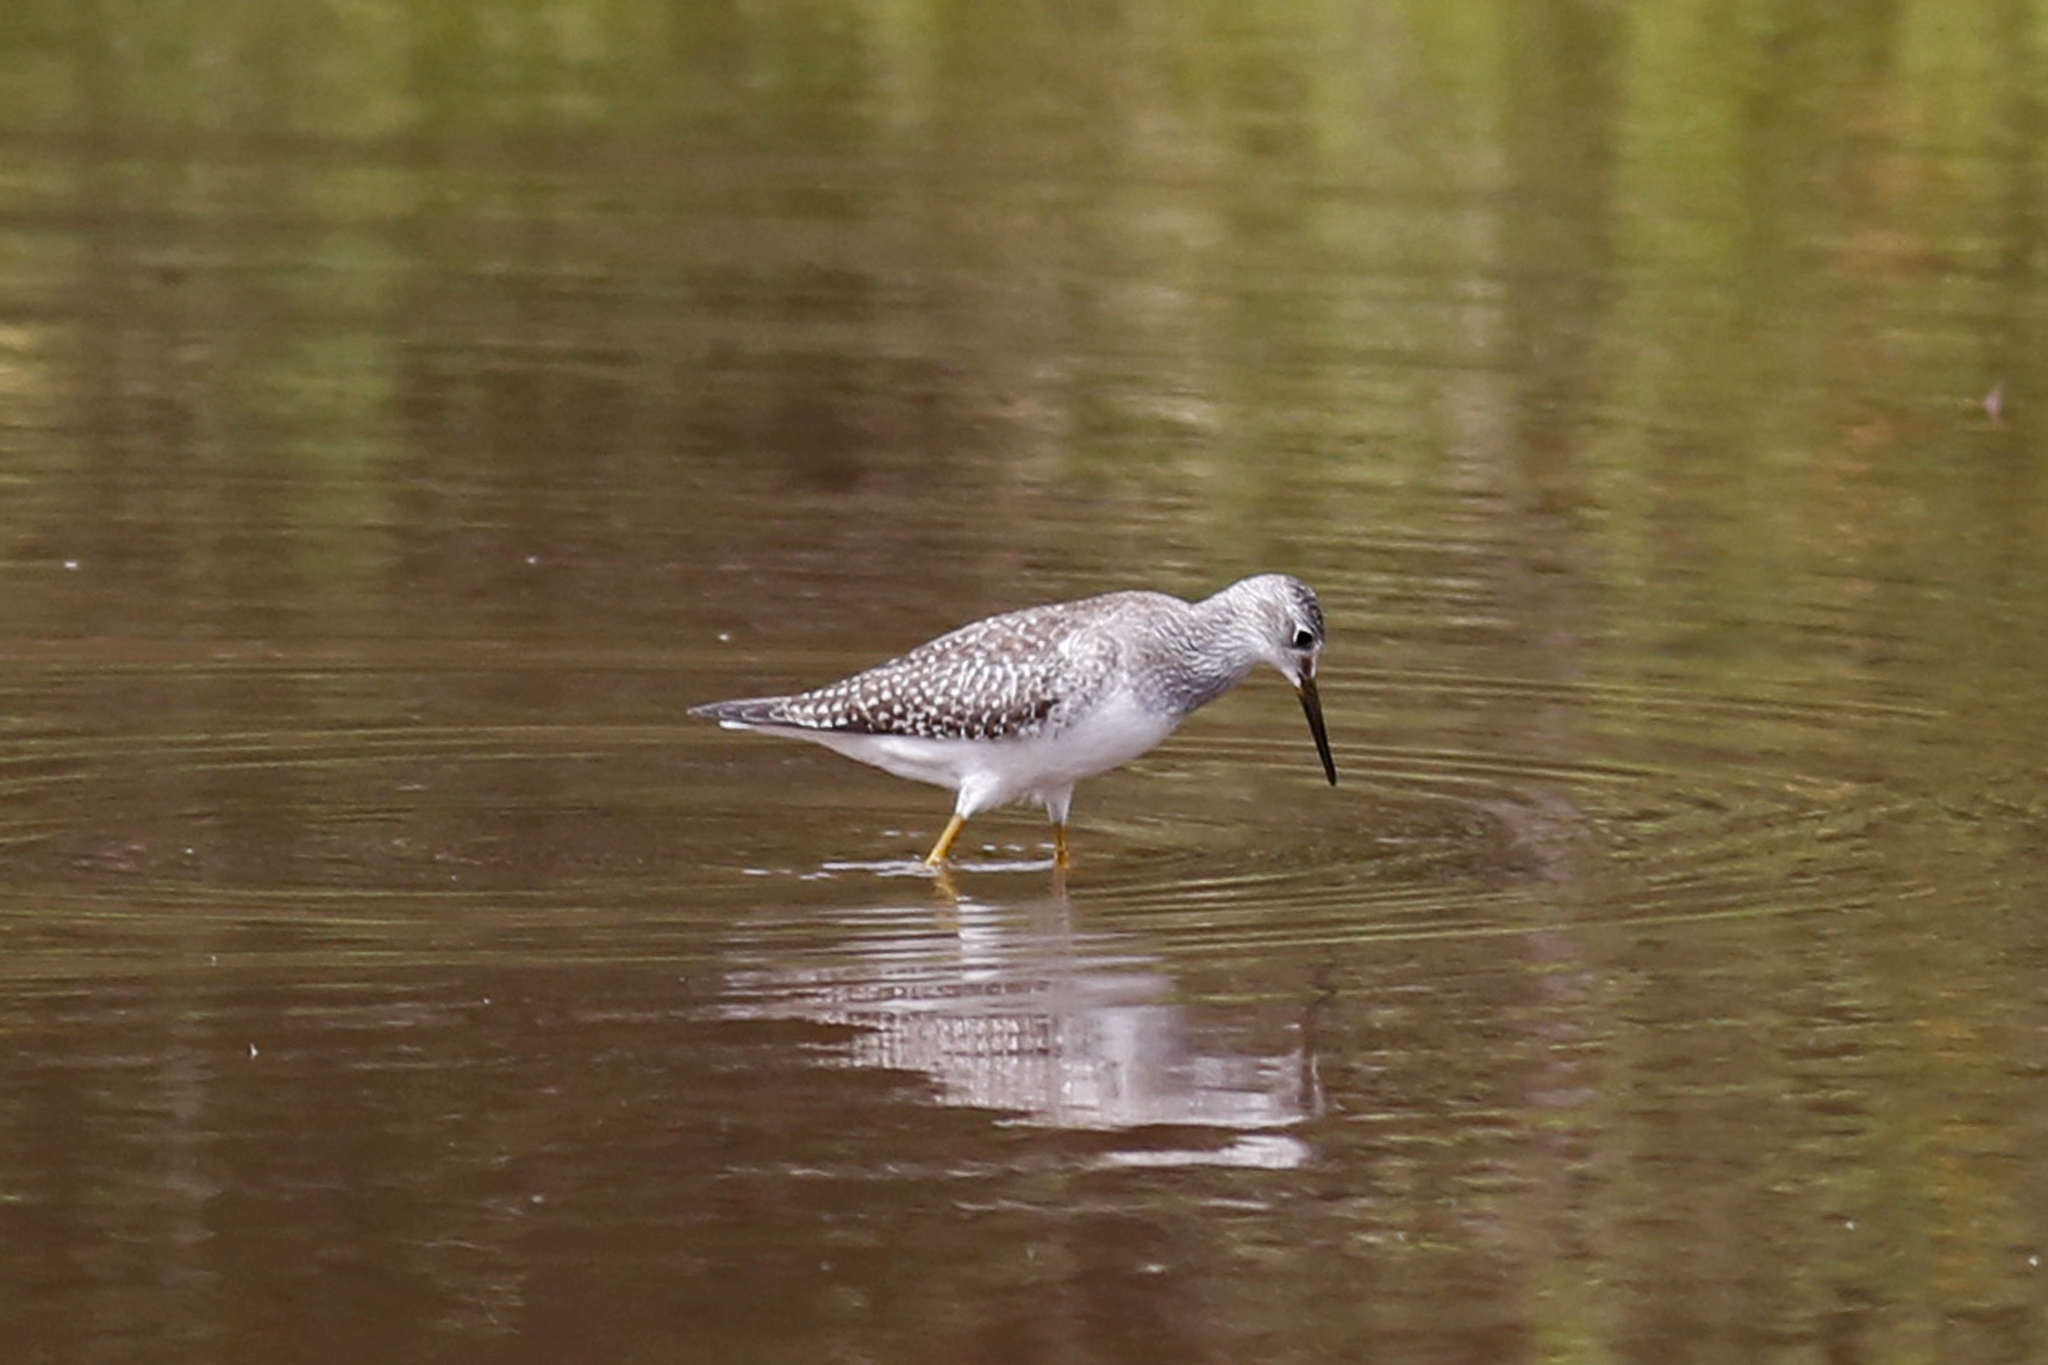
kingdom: Animalia
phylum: Chordata
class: Aves
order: Charadriiformes
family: Scolopacidae
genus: Tringa
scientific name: Tringa flavipes
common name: Lesser yellowlegs
